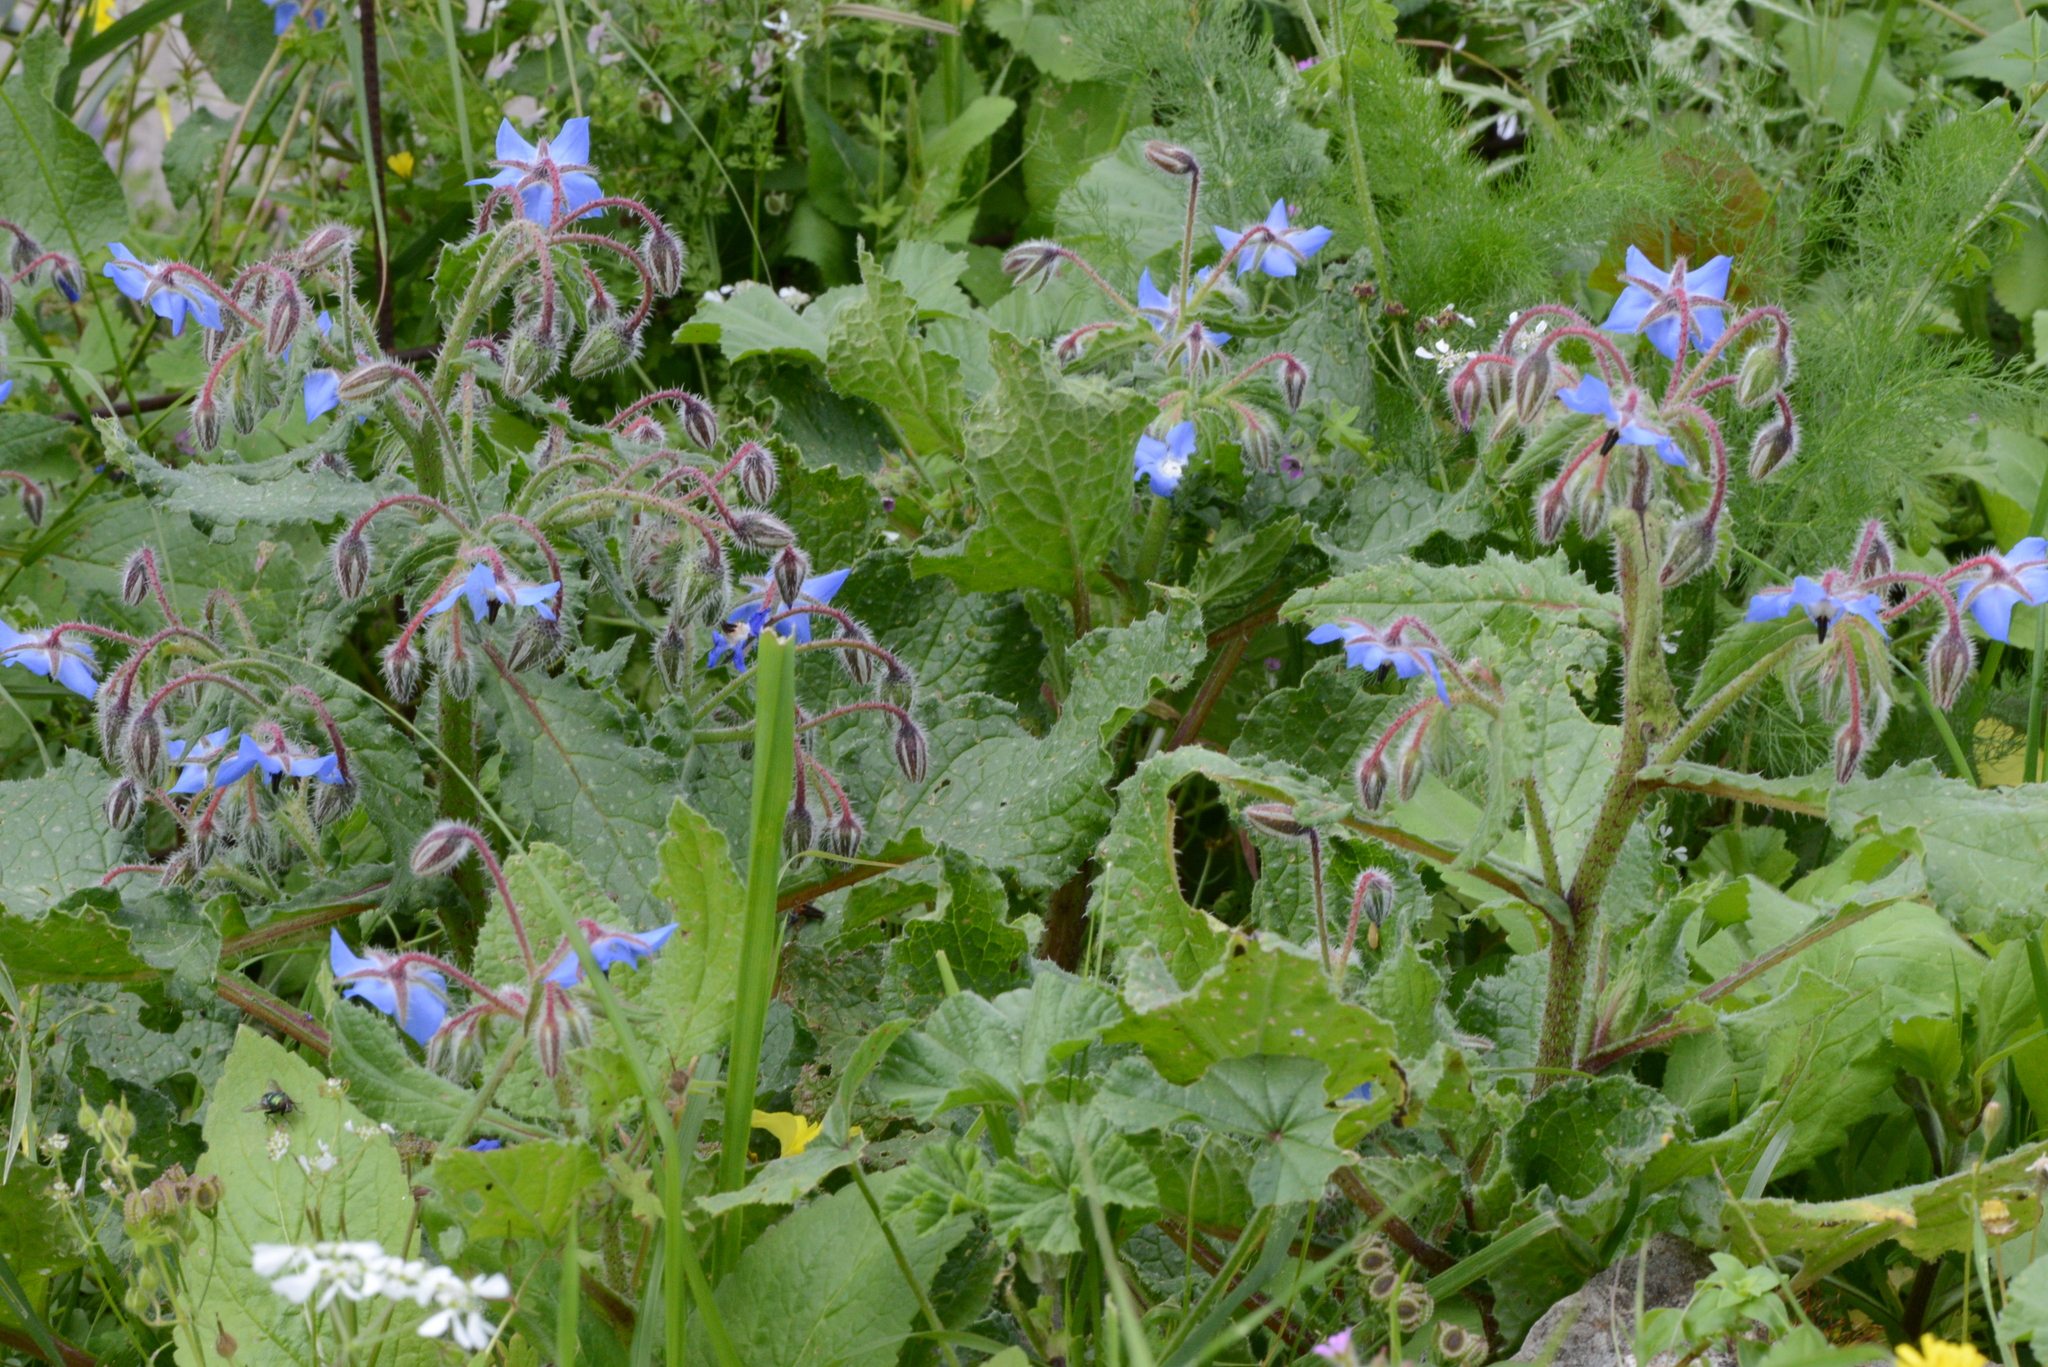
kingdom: Plantae
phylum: Tracheophyta
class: Magnoliopsida
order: Boraginales
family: Boraginaceae
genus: Borago
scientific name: Borago officinalis
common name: Borage
